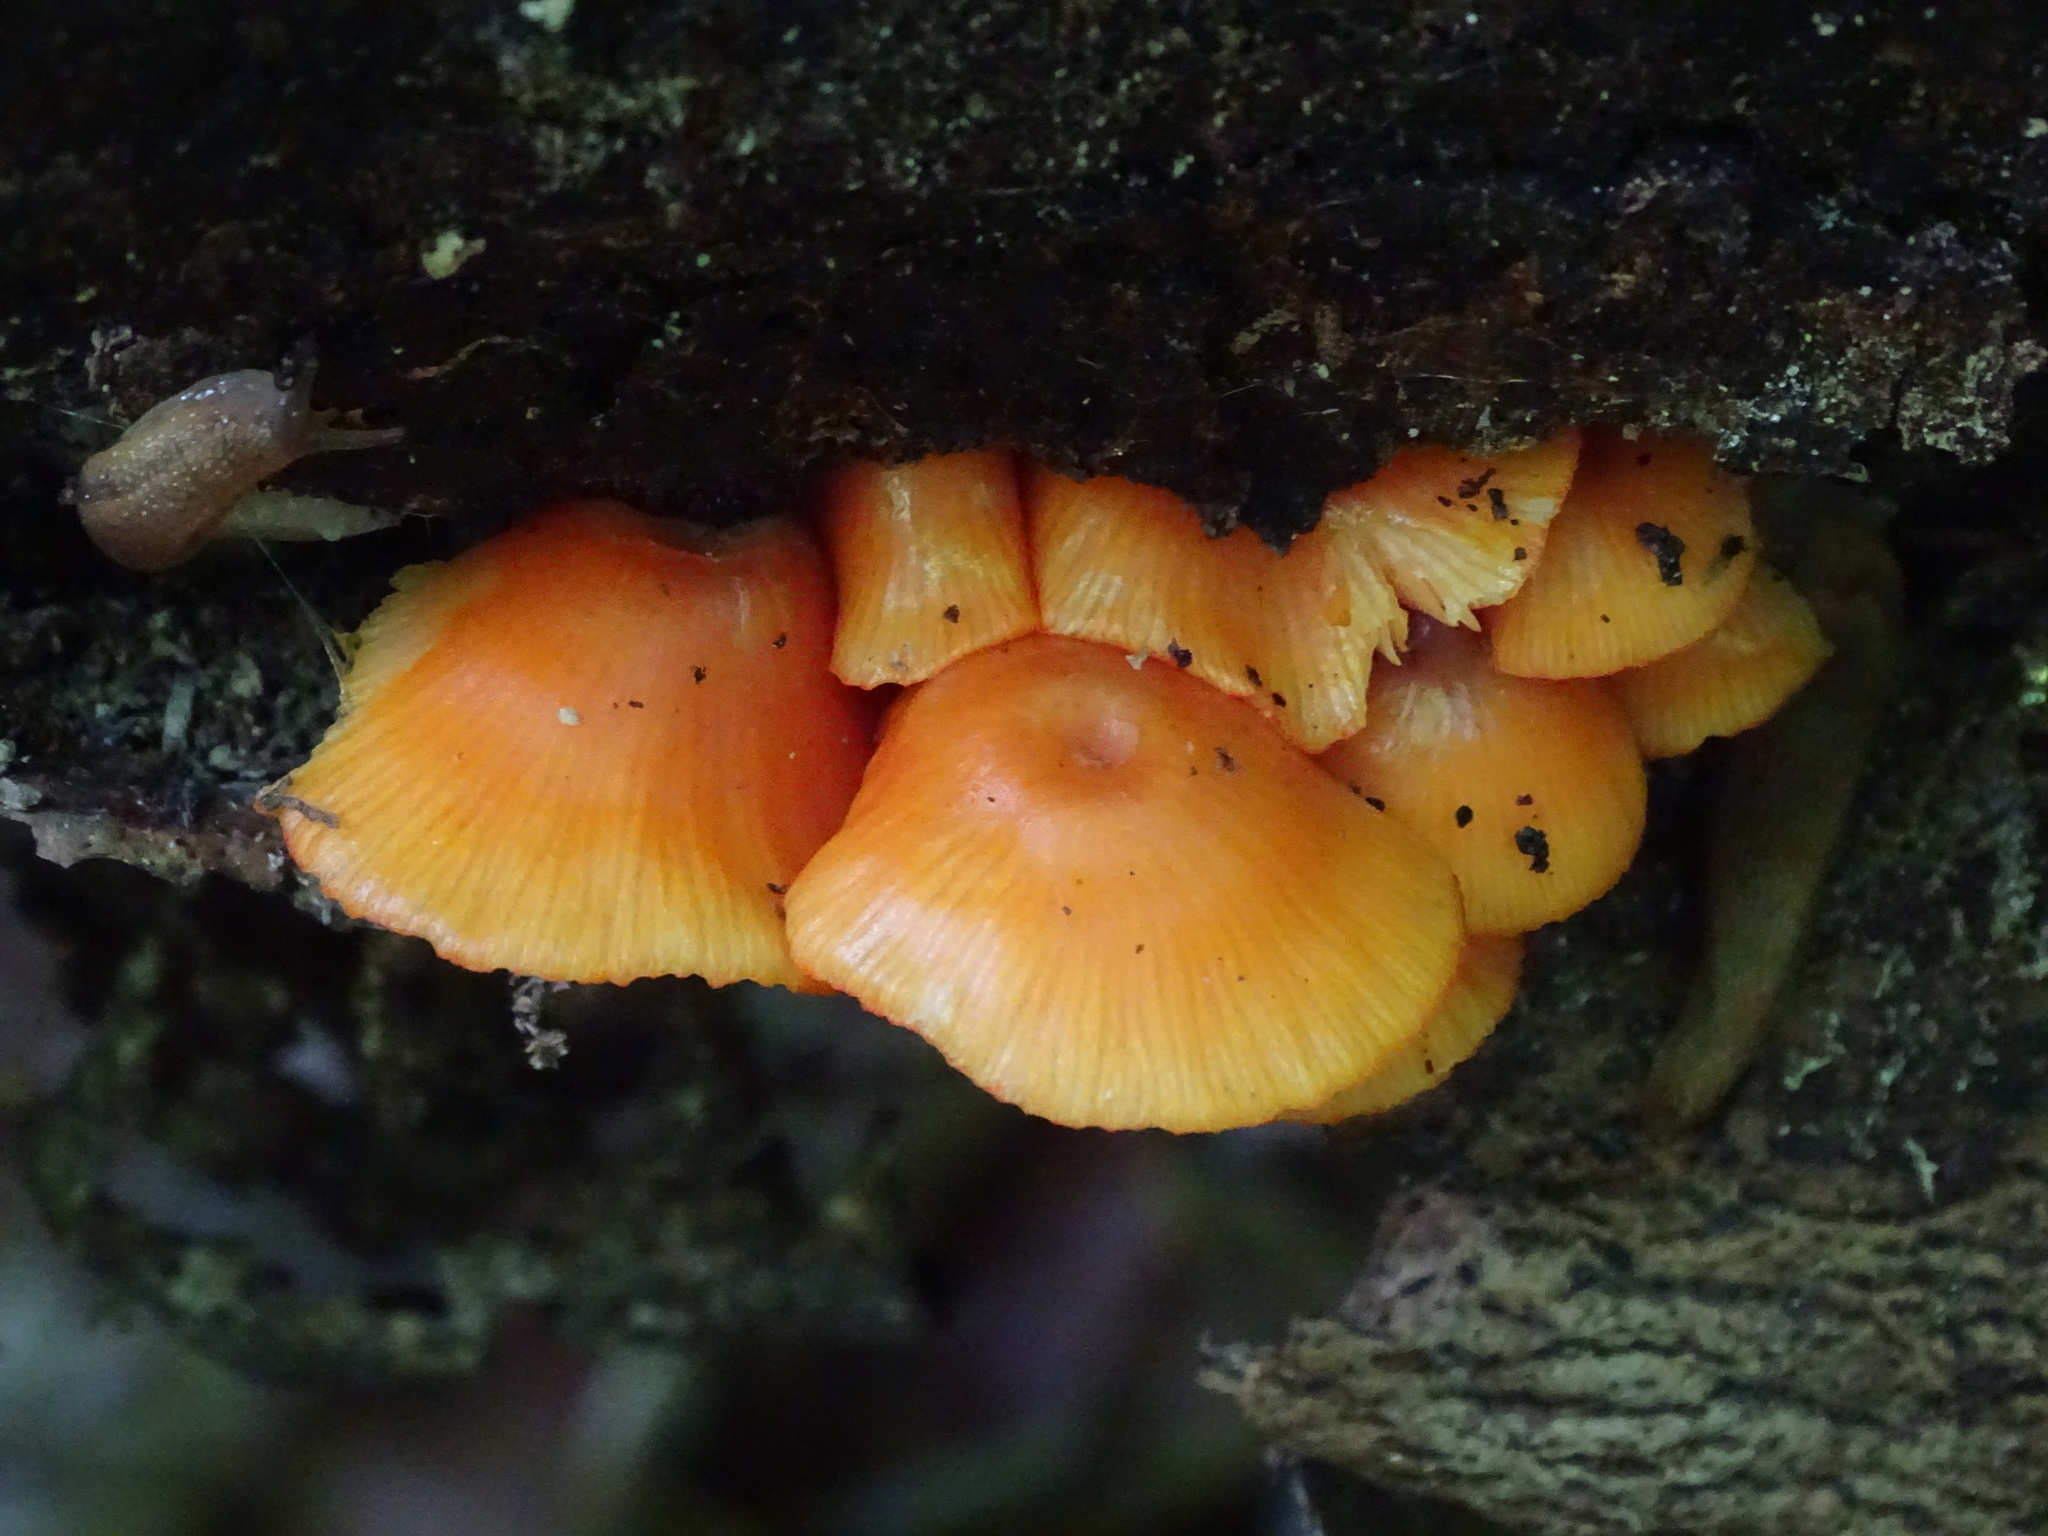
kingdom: Fungi
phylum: Basidiomycota
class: Agaricomycetes
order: Agaricales
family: Mycenaceae
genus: Mycena
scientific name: Mycena leaiana
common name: Orange mycena
